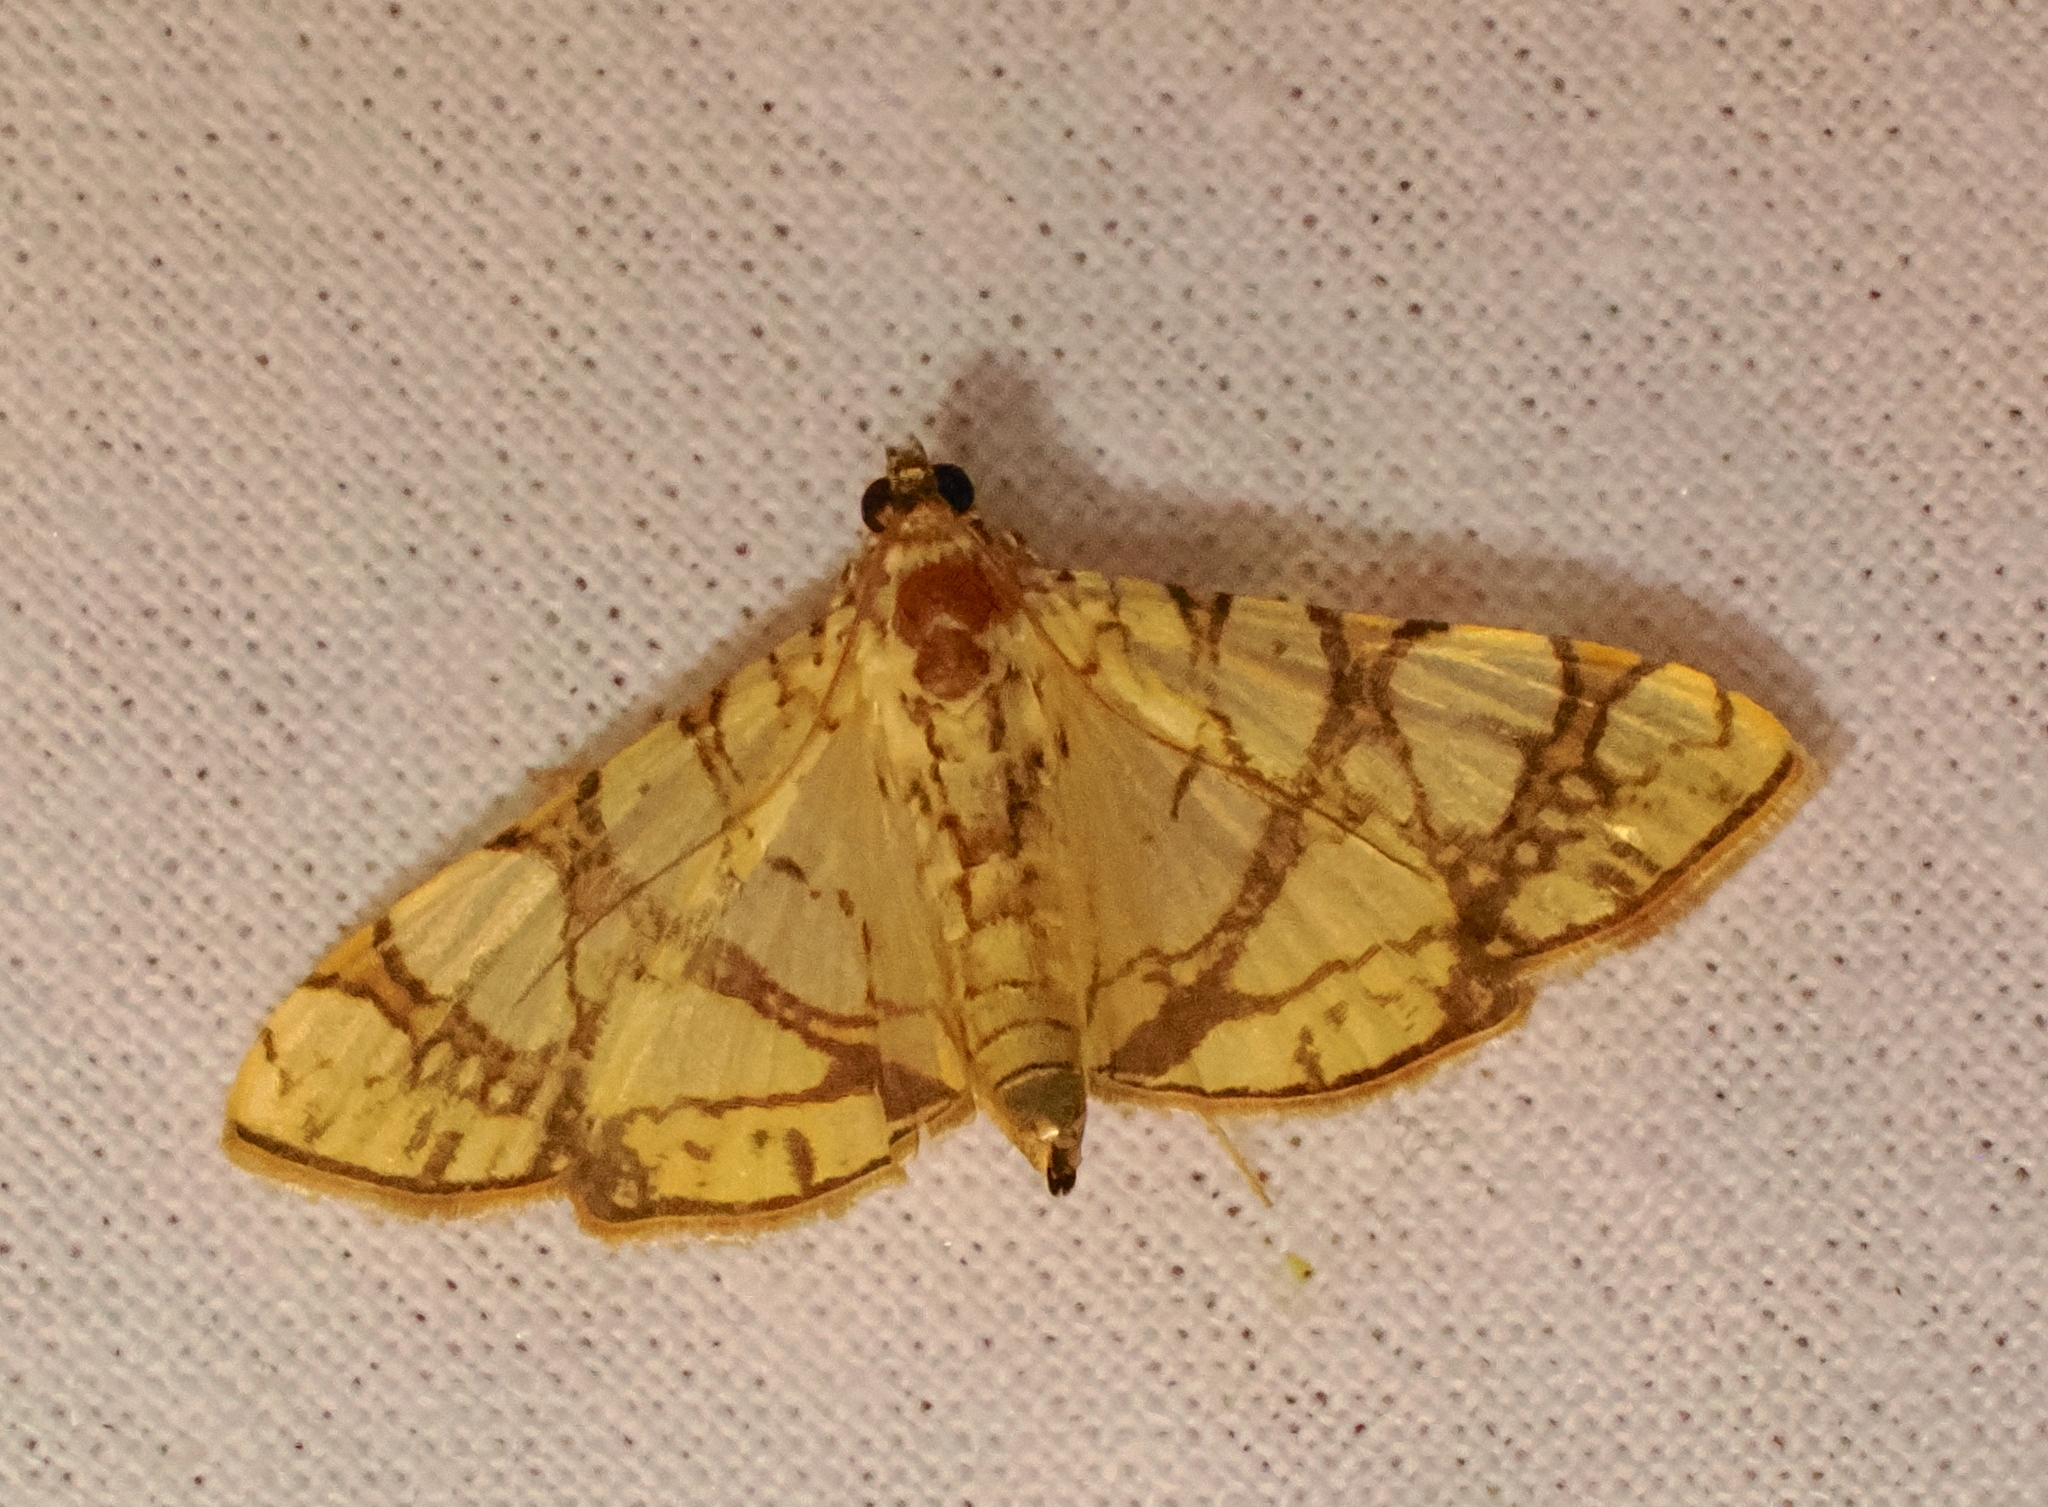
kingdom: Animalia
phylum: Arthropoda
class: Insecta
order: Lepidoptera
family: Crambidae
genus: Glyphodes
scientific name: Glyphodes caesalis
